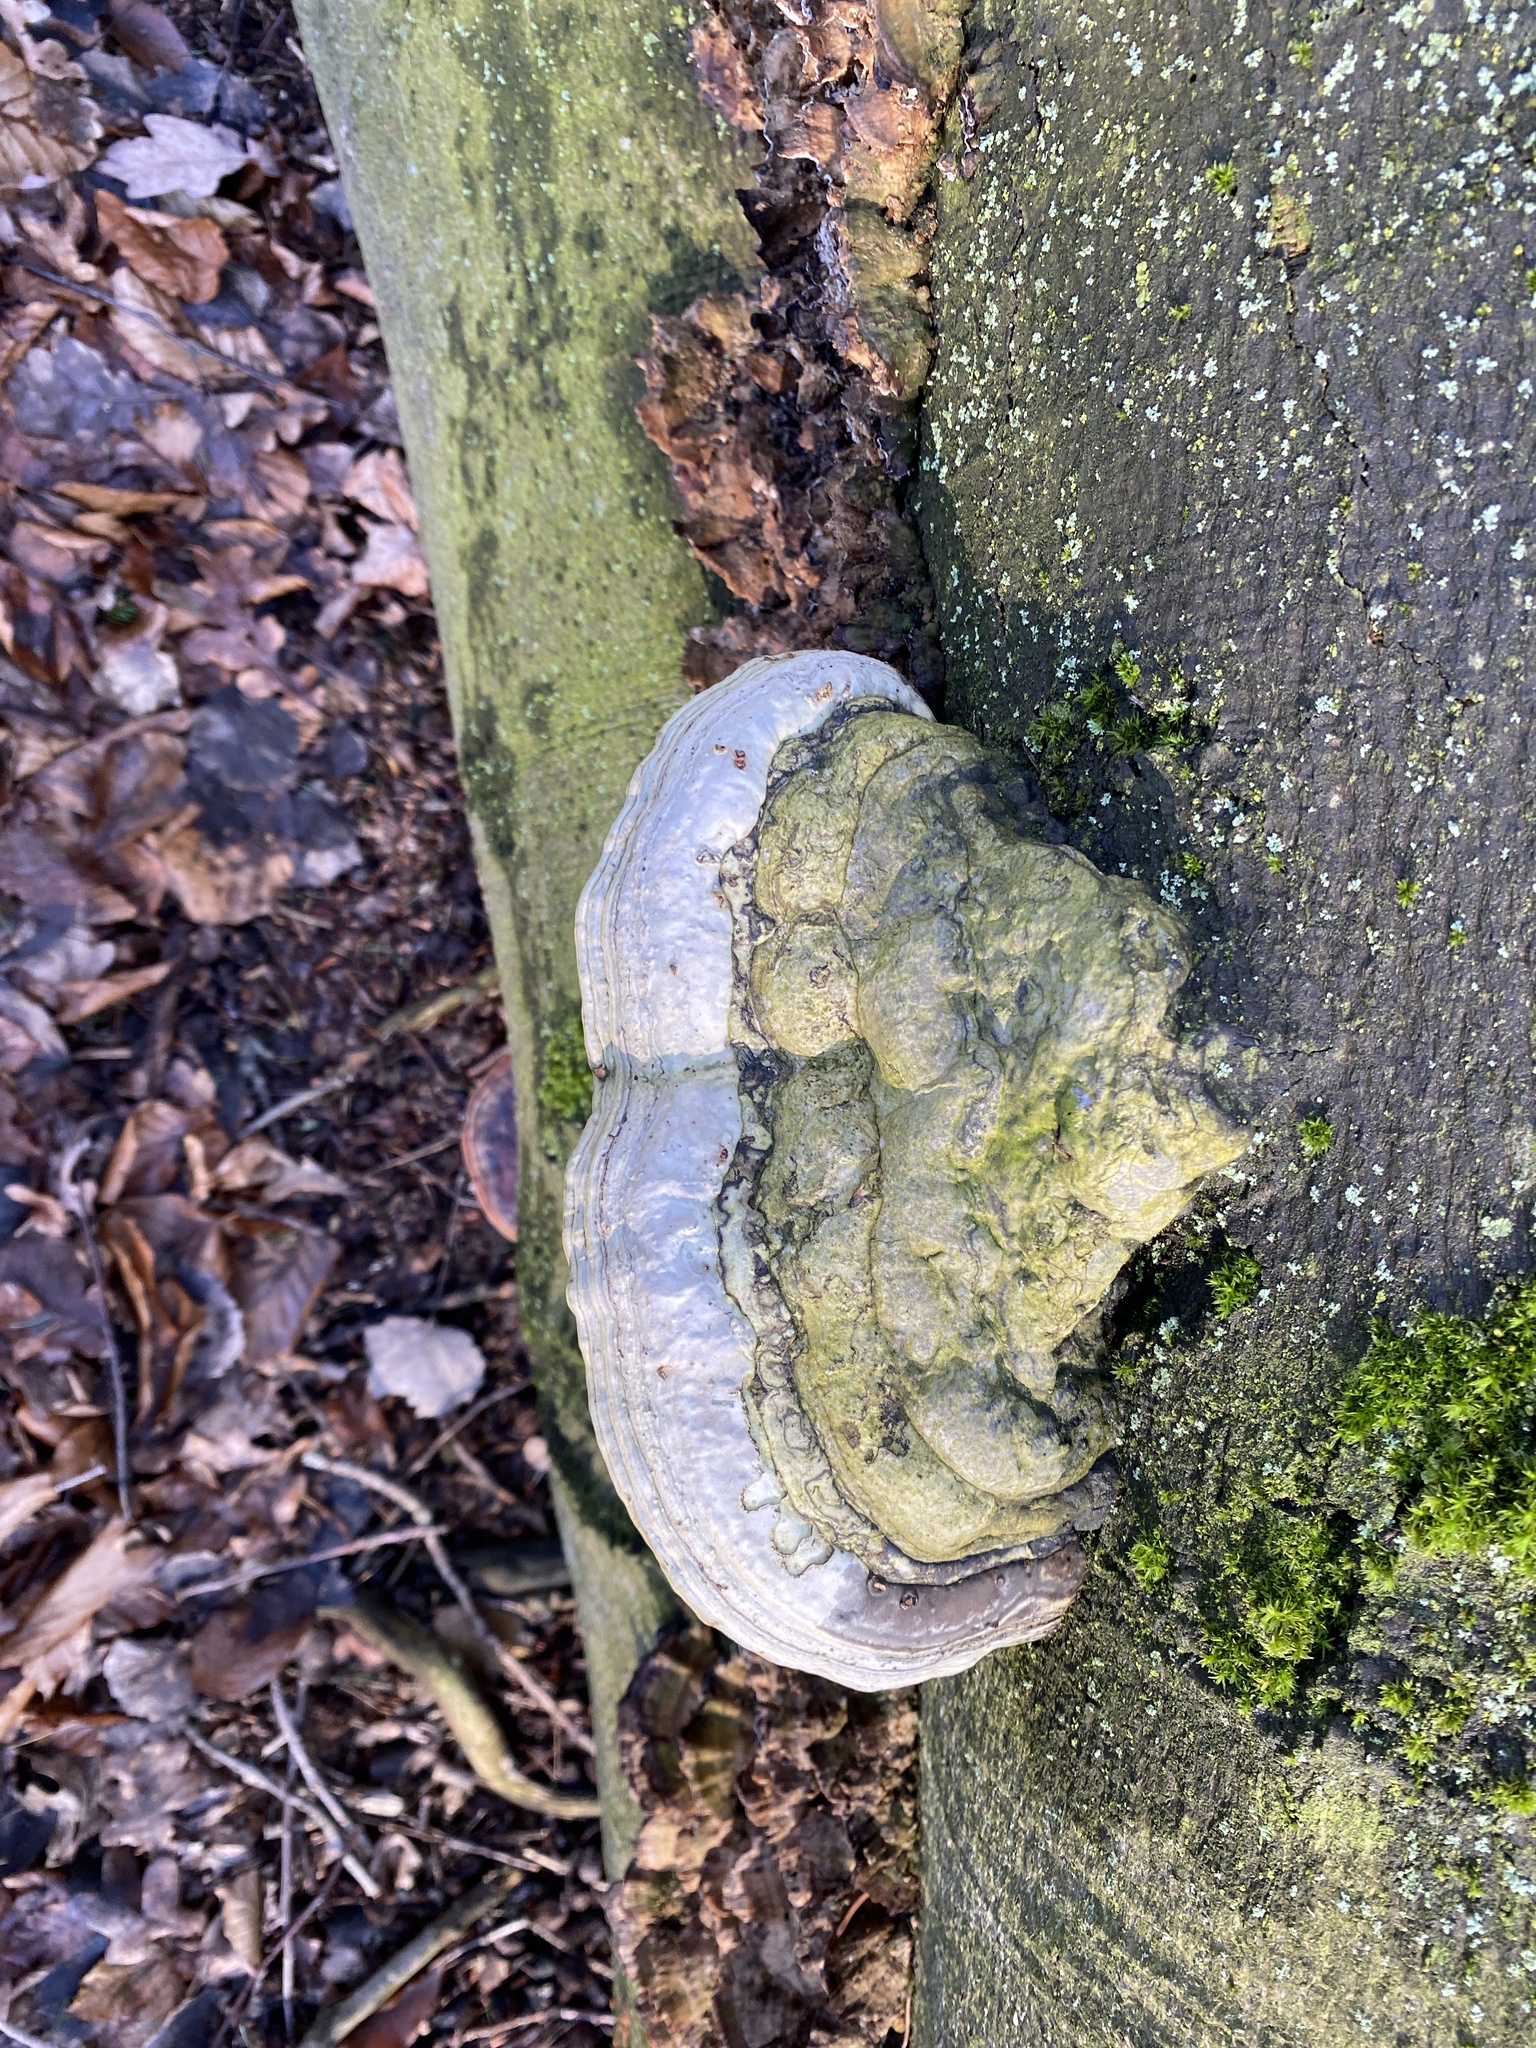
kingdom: Fungi
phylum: Basidiomycota
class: Agaricomycetes
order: Polyporales
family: Polyporaceae
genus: Fomes
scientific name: Fomes fomentarius
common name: Hoof fungus
